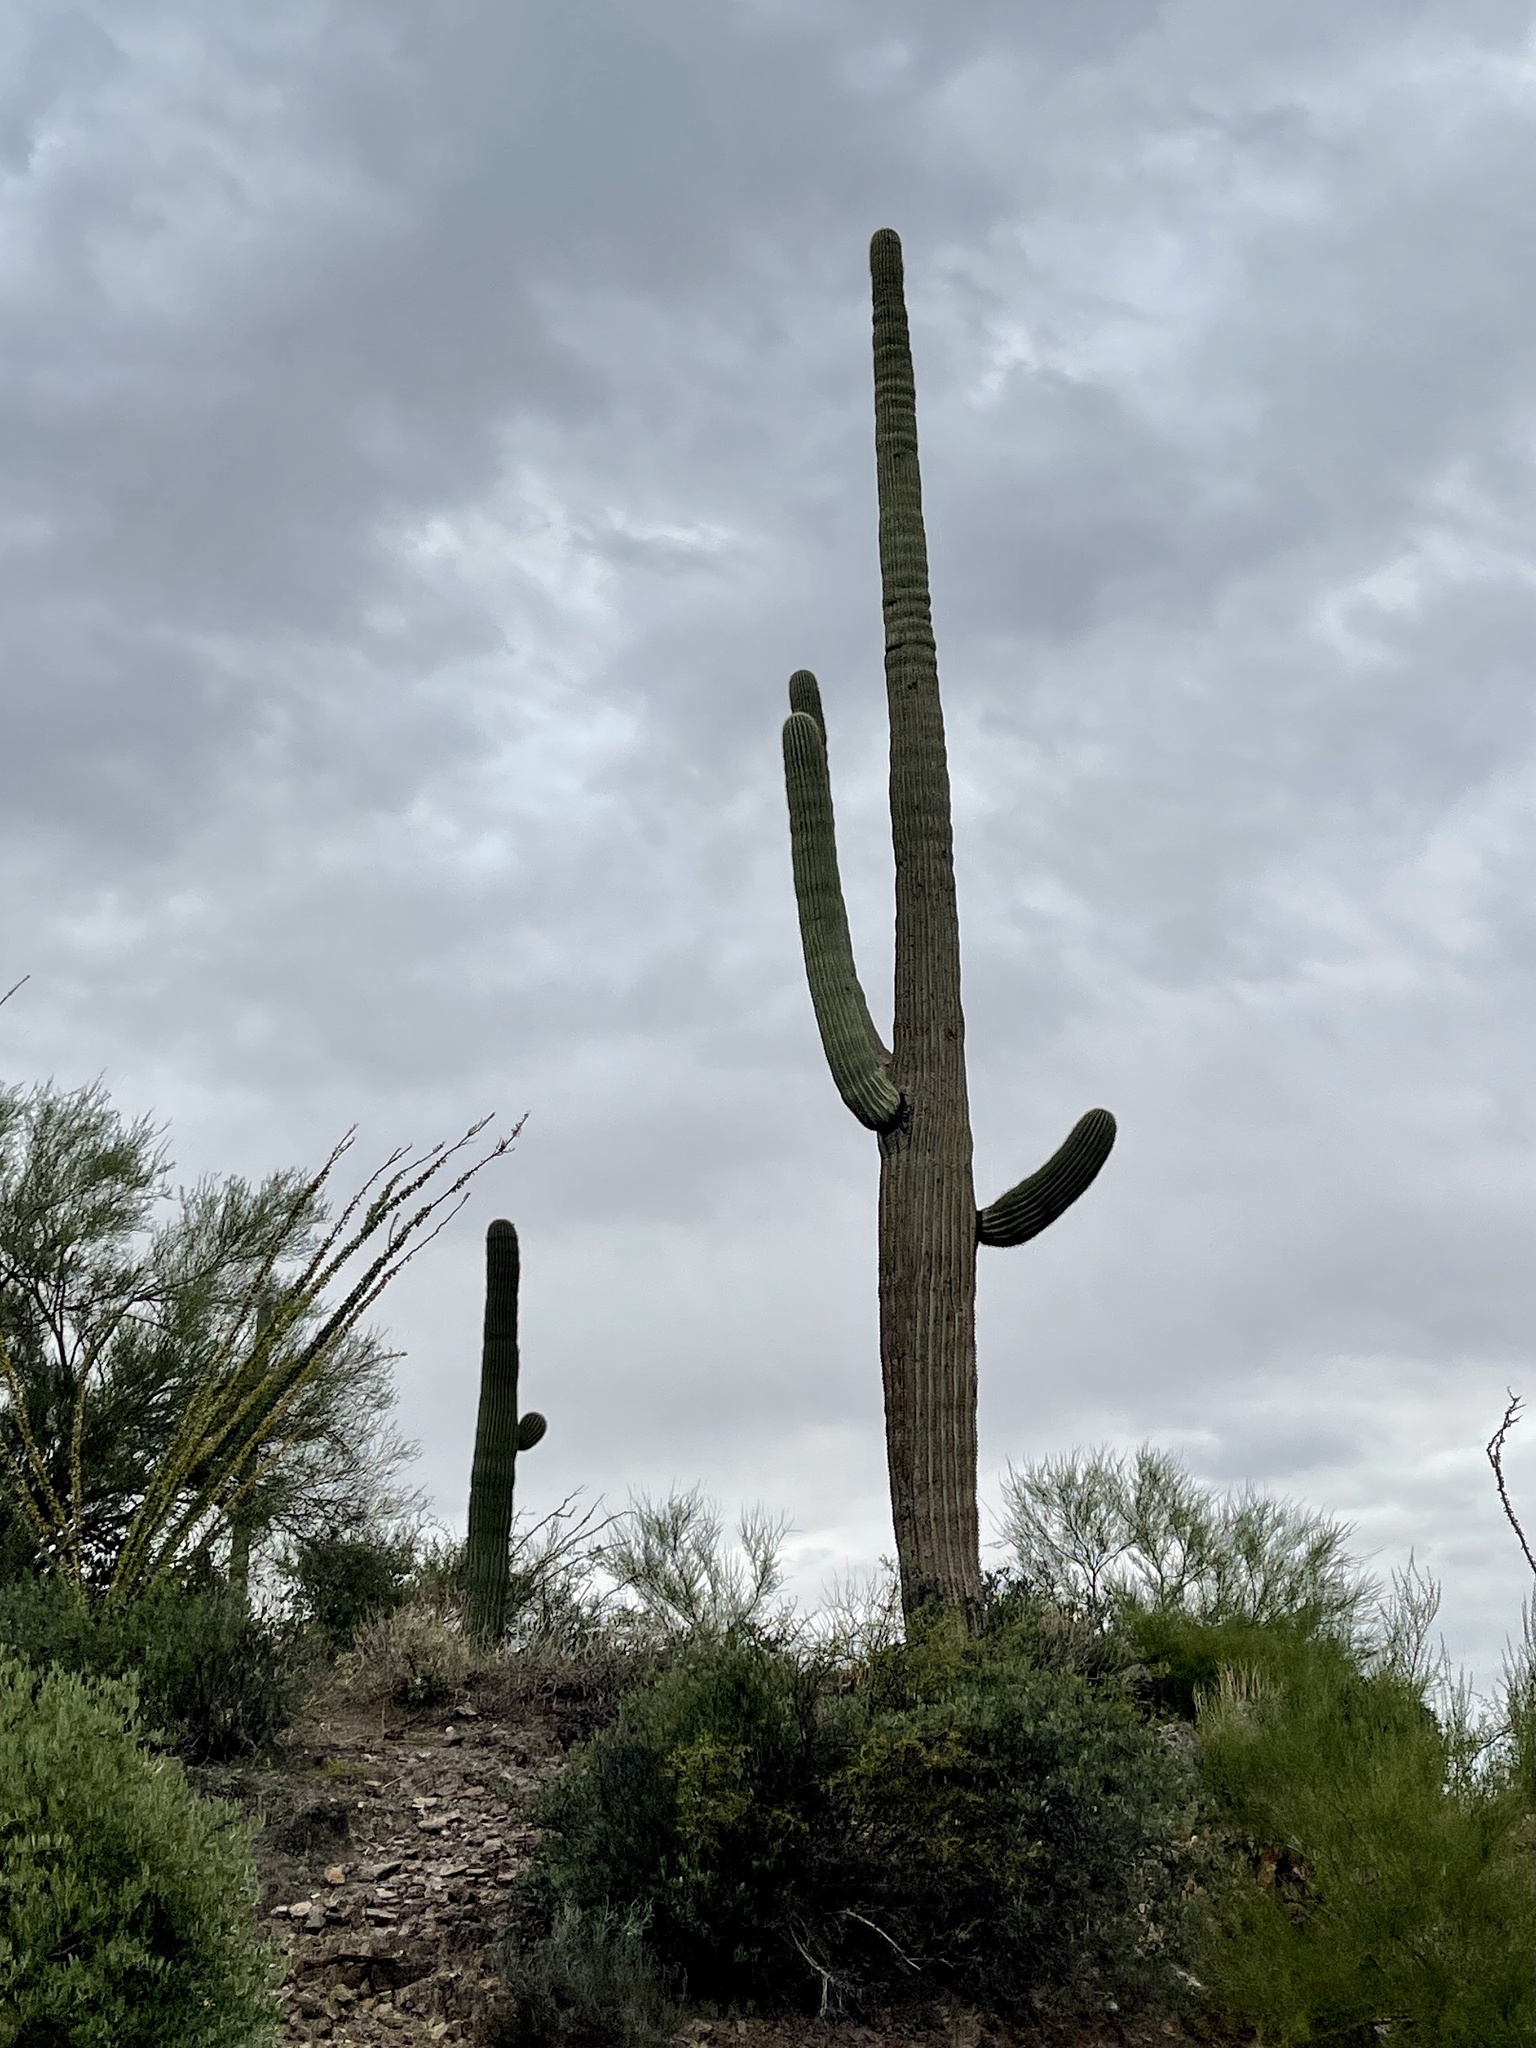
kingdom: Plantae
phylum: Tracheophyta
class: Magnoliopsida
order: Caryophyllales
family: Cactaceae
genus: Carnegiea
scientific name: Carnegiea gigantea
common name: Saguaro
